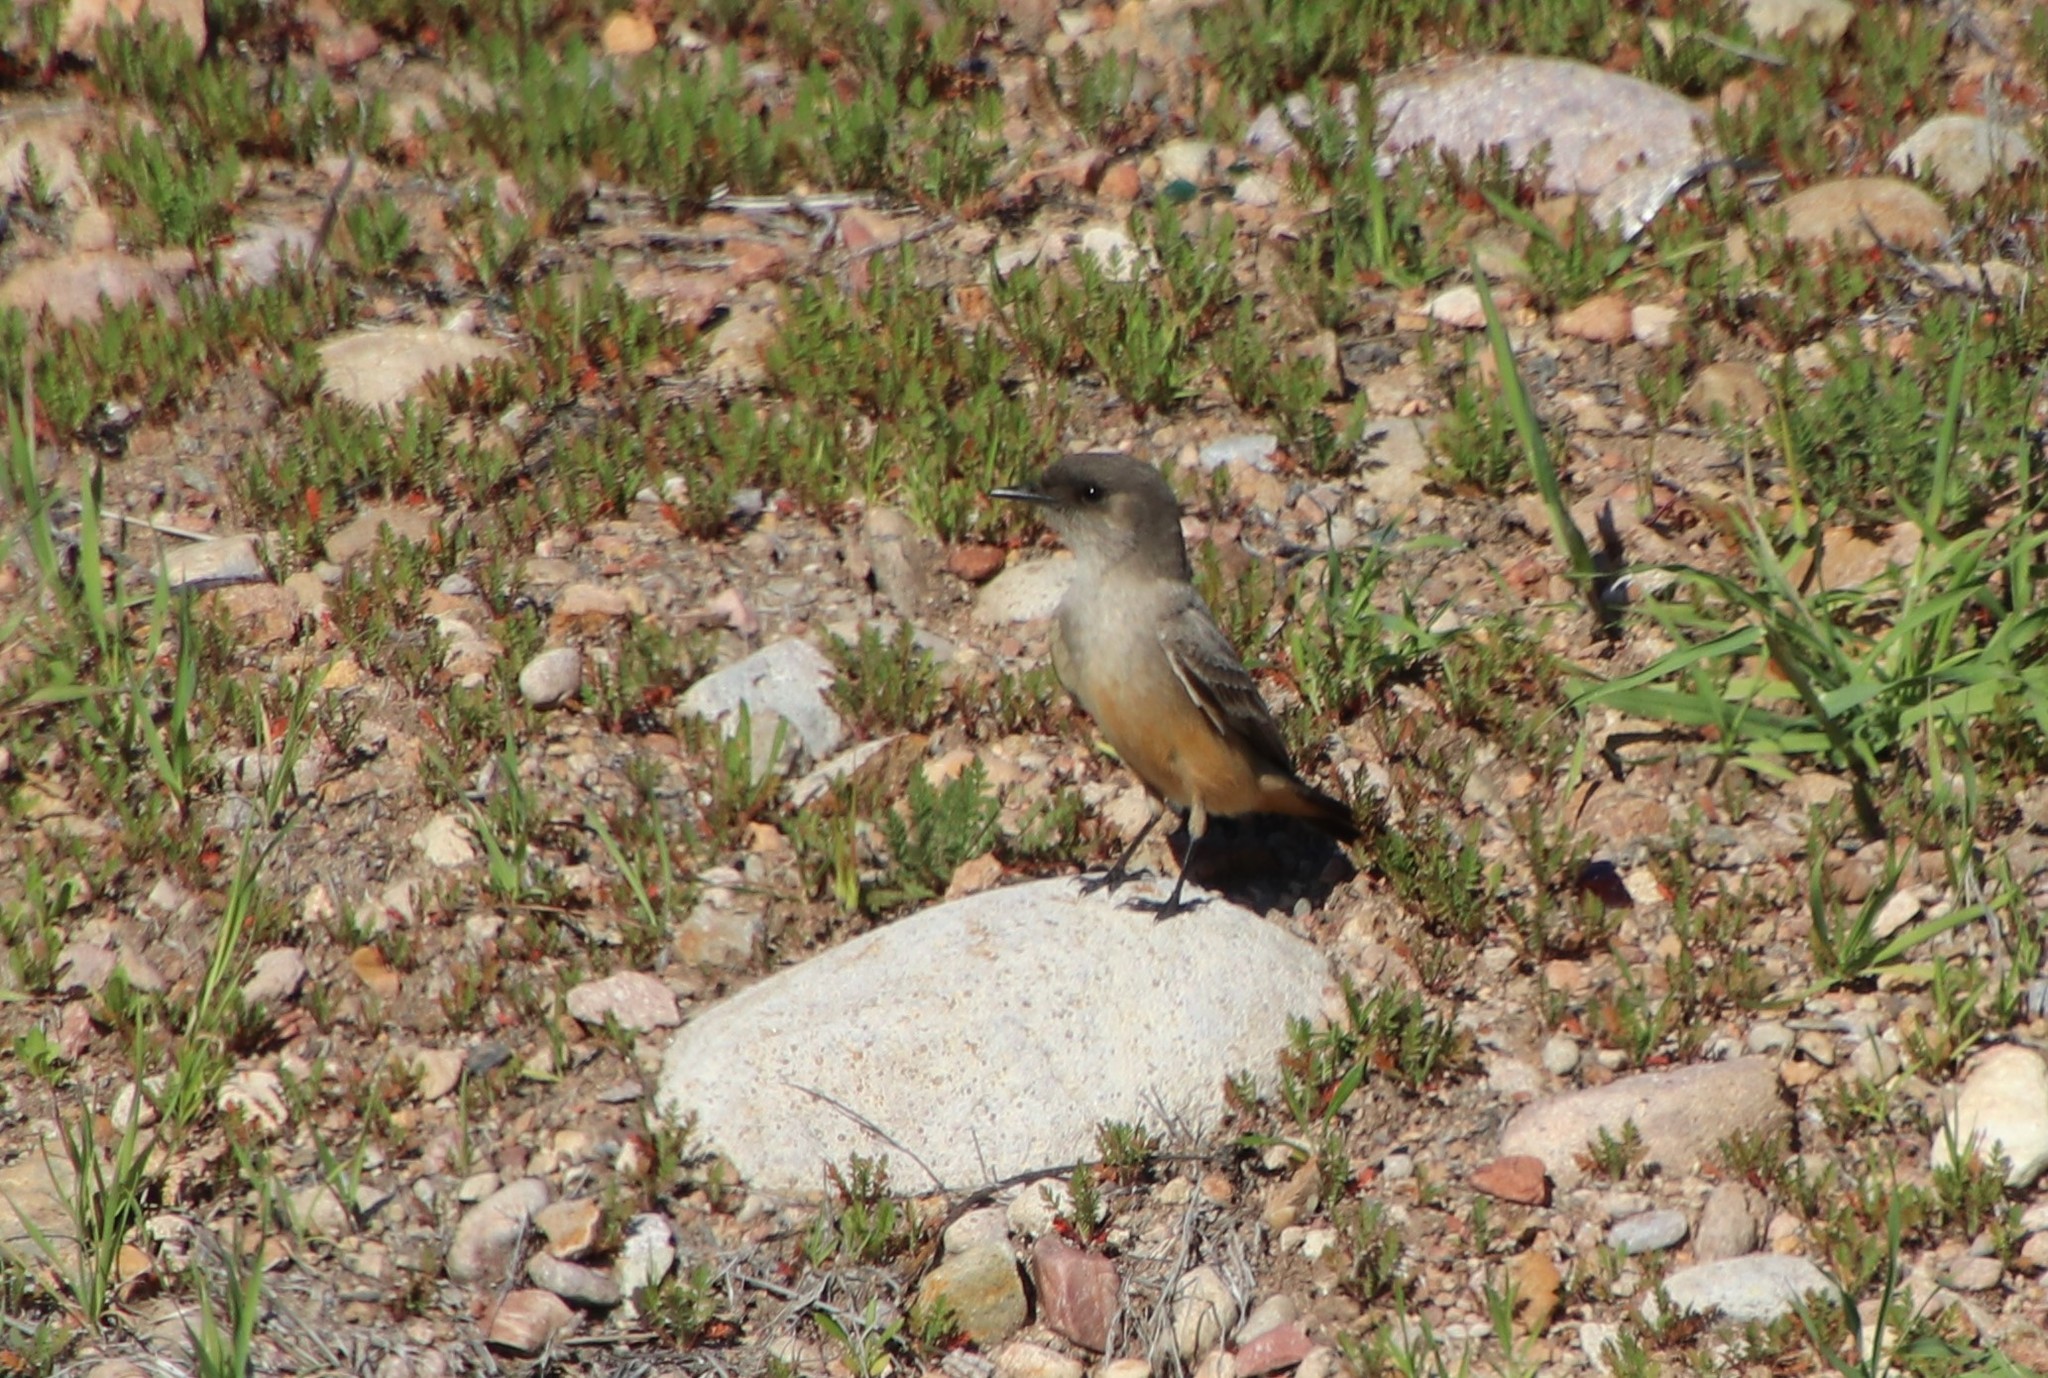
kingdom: Animalia
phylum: Chordata
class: Aves
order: Passeriformes
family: Tyrannidae
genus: Sayornis
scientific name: Sayornis saya
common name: Say's phoebe
